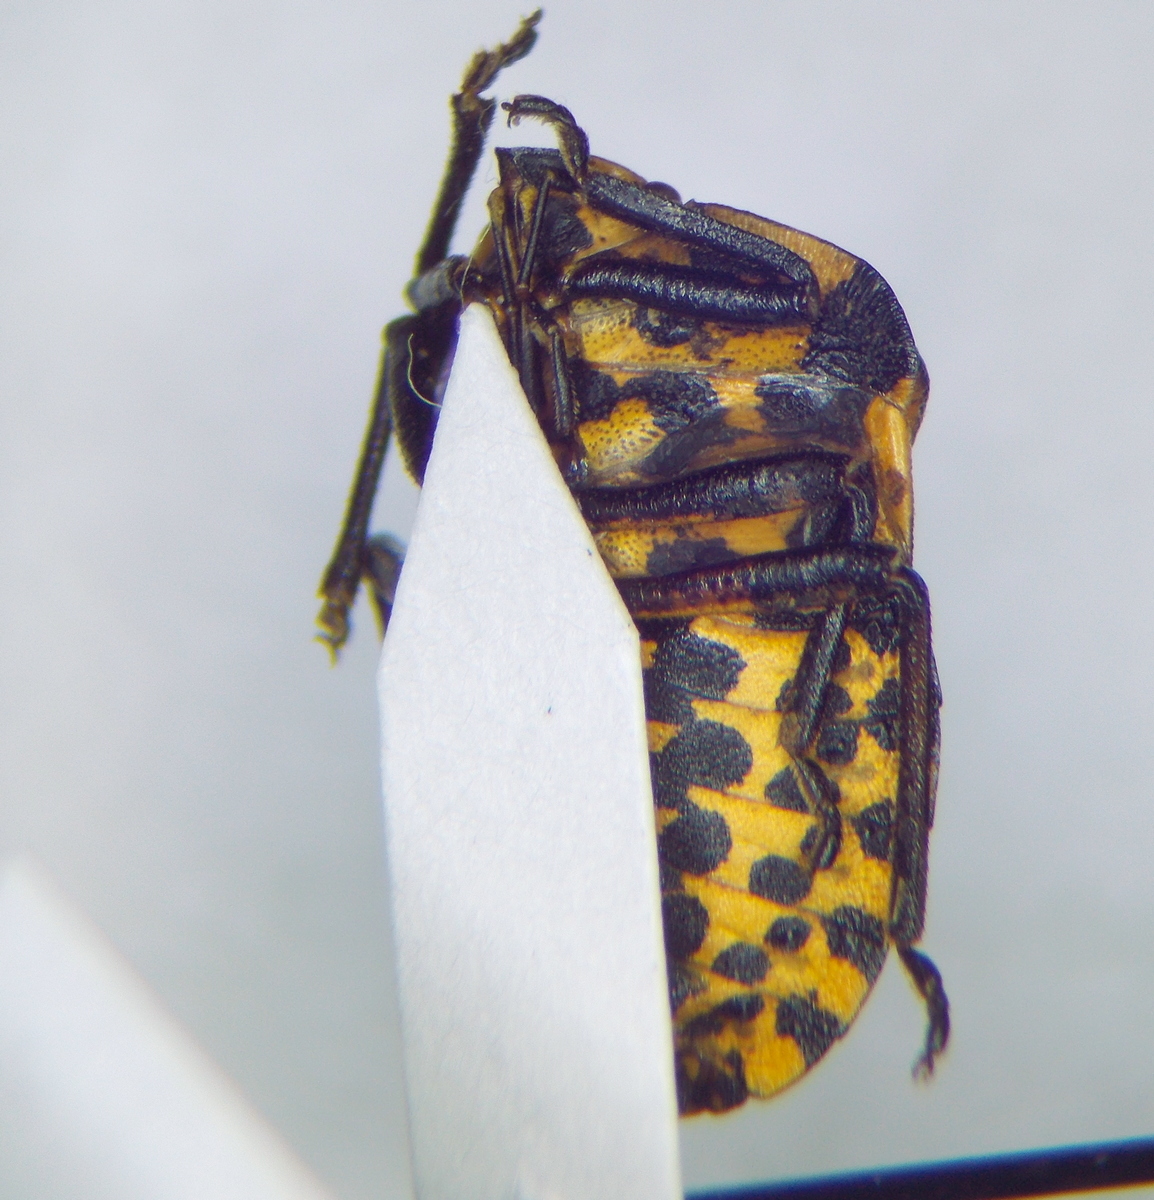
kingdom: Animalia
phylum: Arthropoda
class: Insecta
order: Hemiptera
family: Pentatomidae
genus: Graphosoma
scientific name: Graphosoma rubrolineatum
